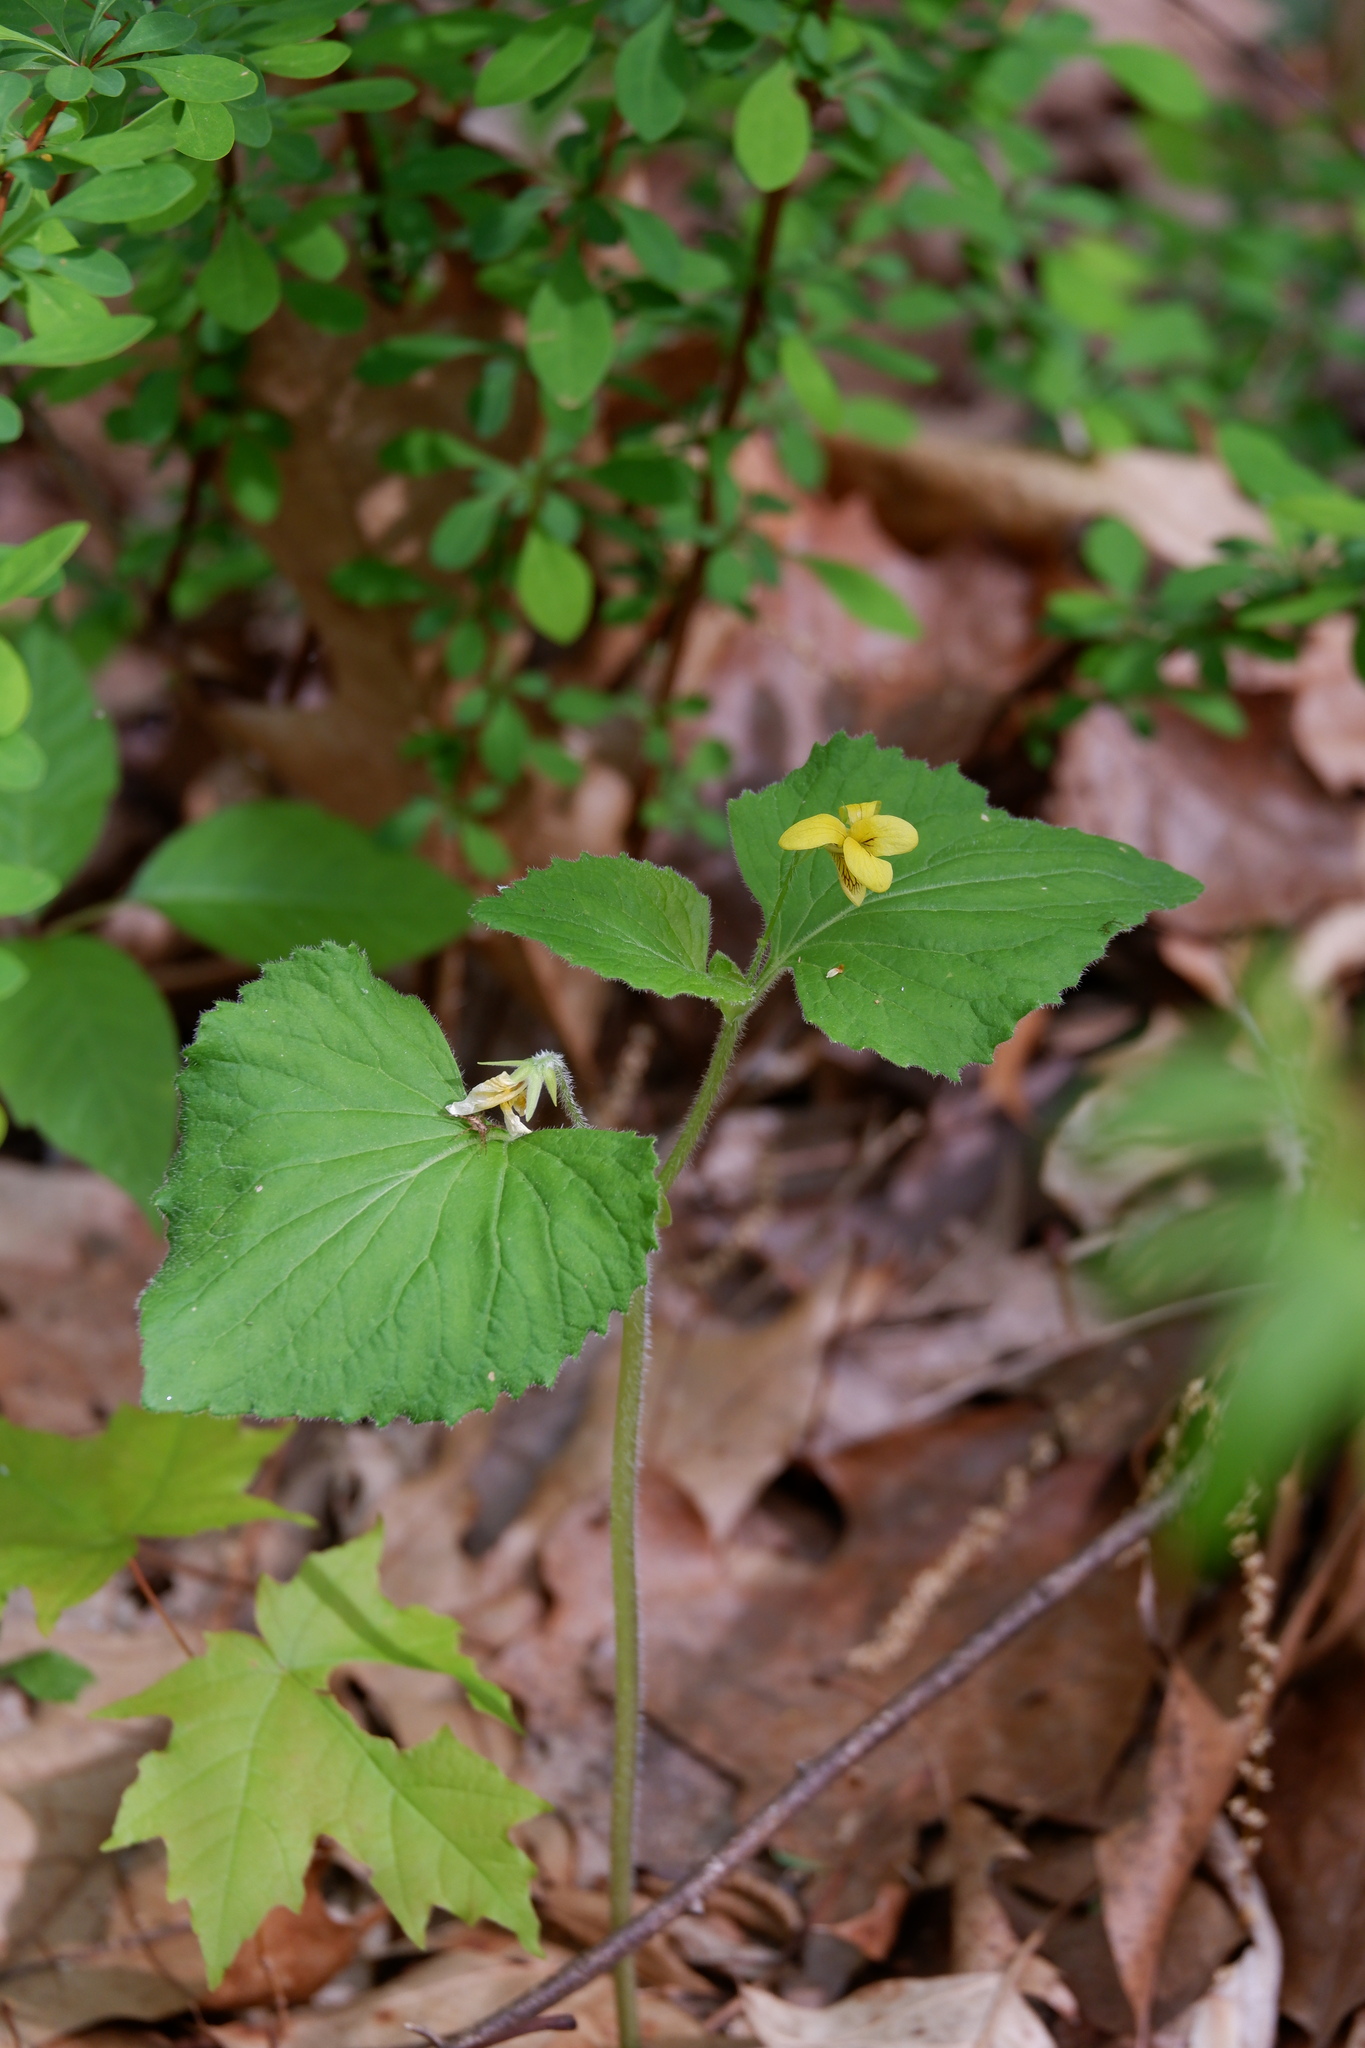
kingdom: Plantae
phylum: Tracheophyta
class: Magnoliopsida
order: Malpighiales
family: Violaceae
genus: Viola
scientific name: Viola pubescens
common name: Yellow forest violet
